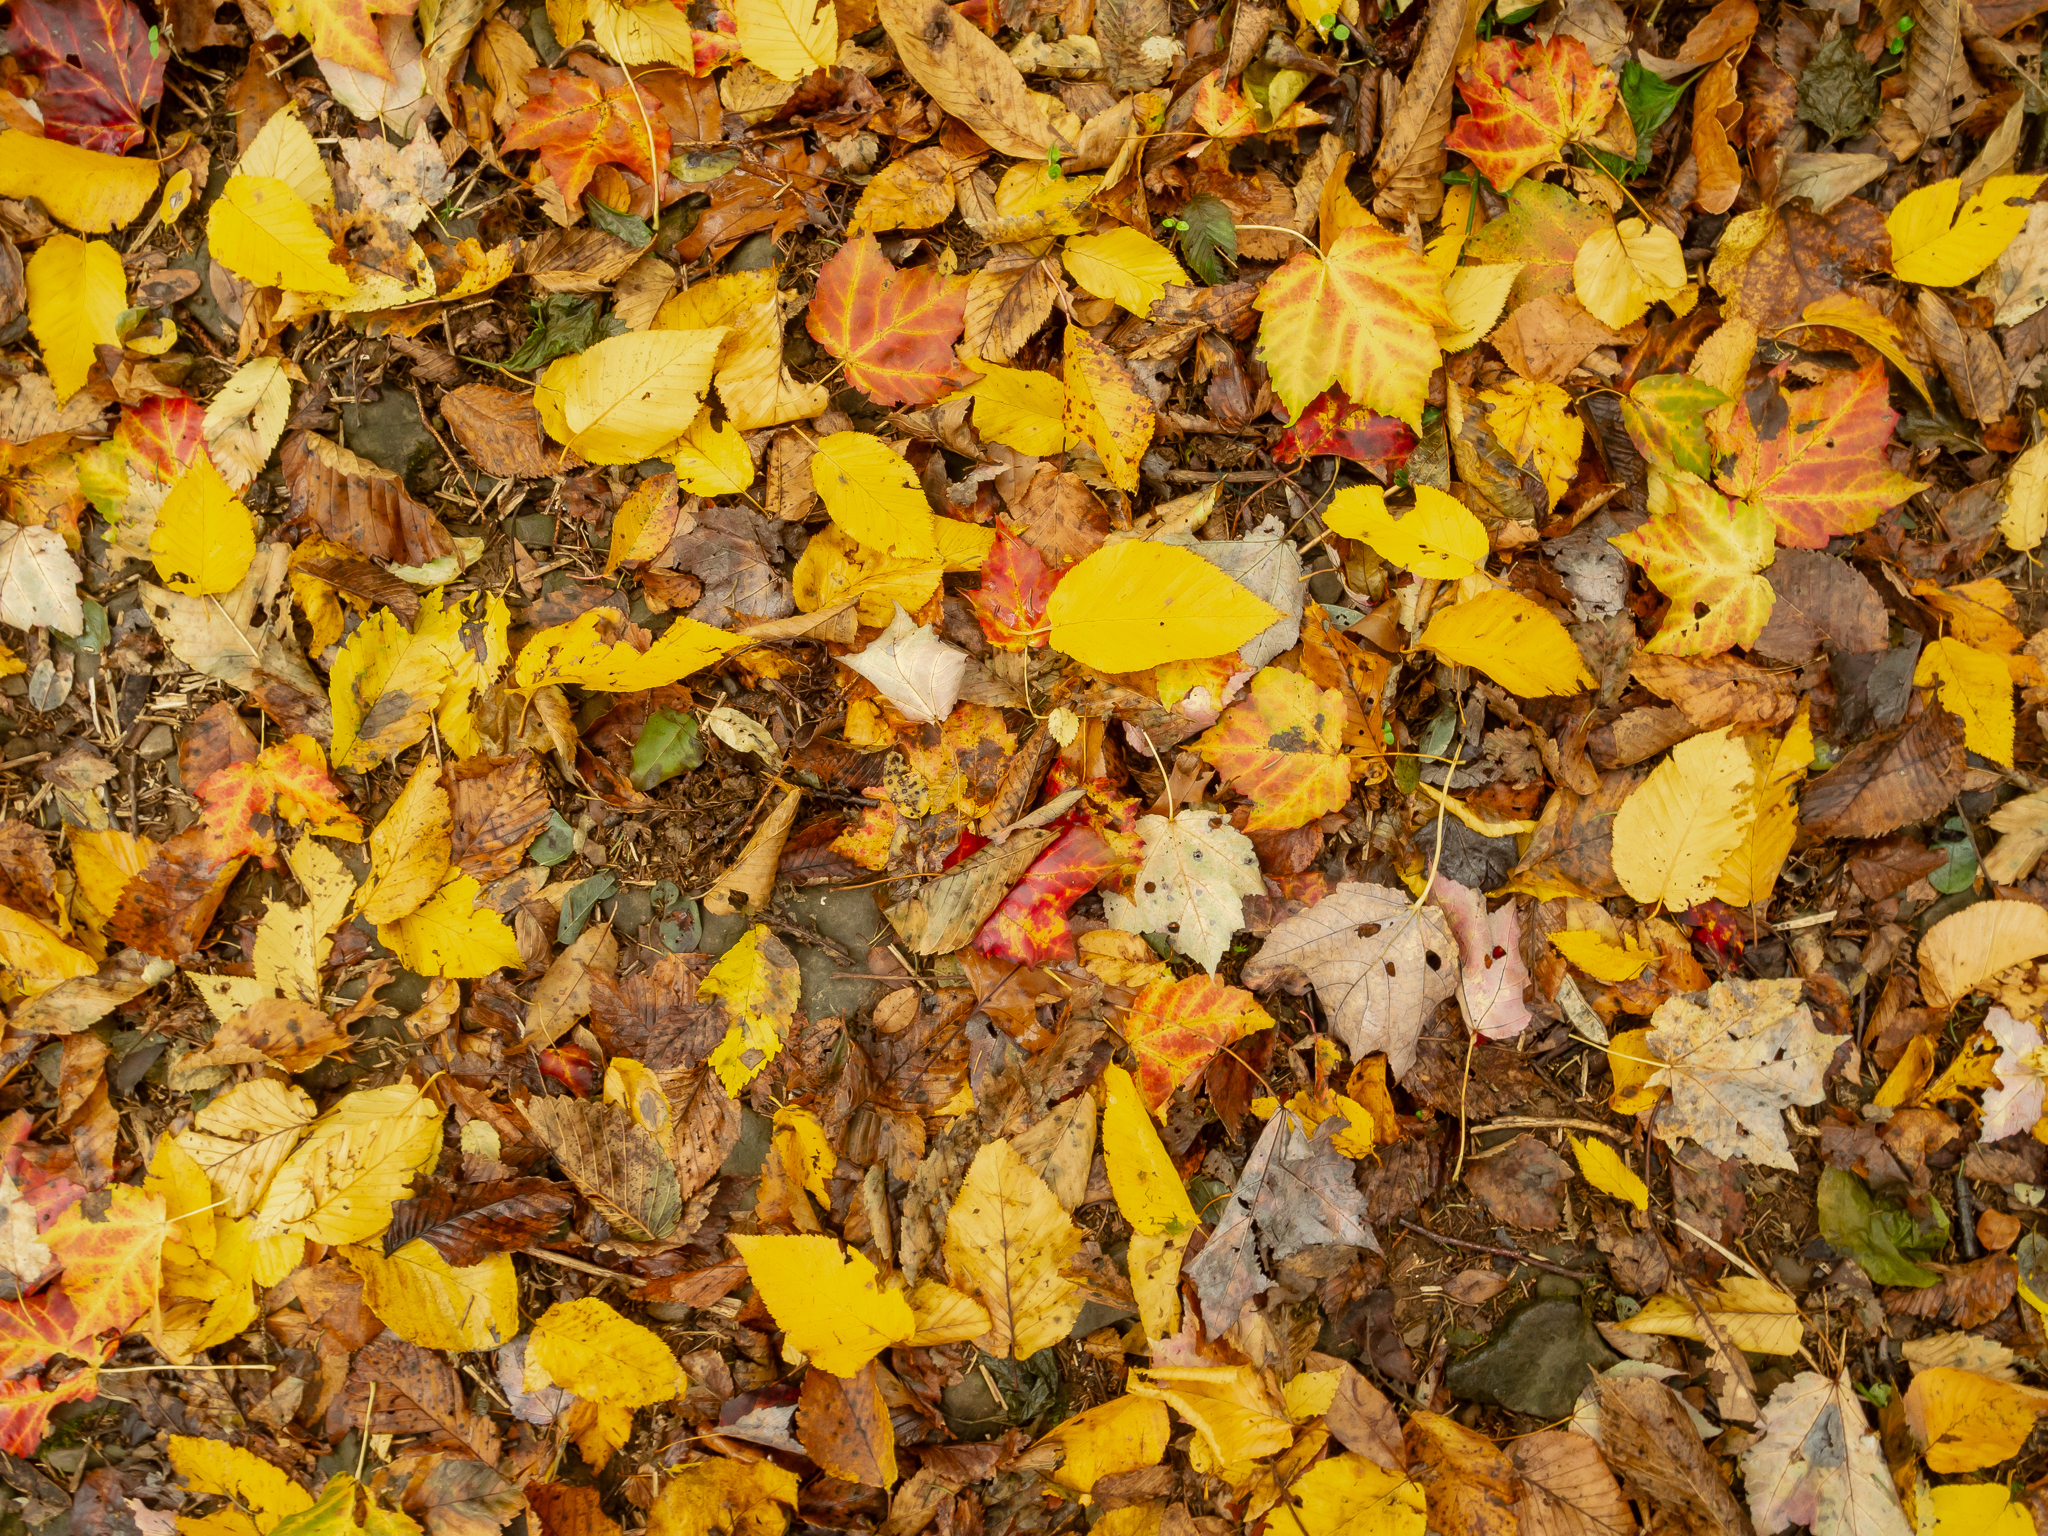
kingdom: Plantae
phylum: Tracheophyta
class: Magnoliopsida
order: Sapindales
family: Sapindaceae
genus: Acer
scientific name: Acer rubrum
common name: Red maple
